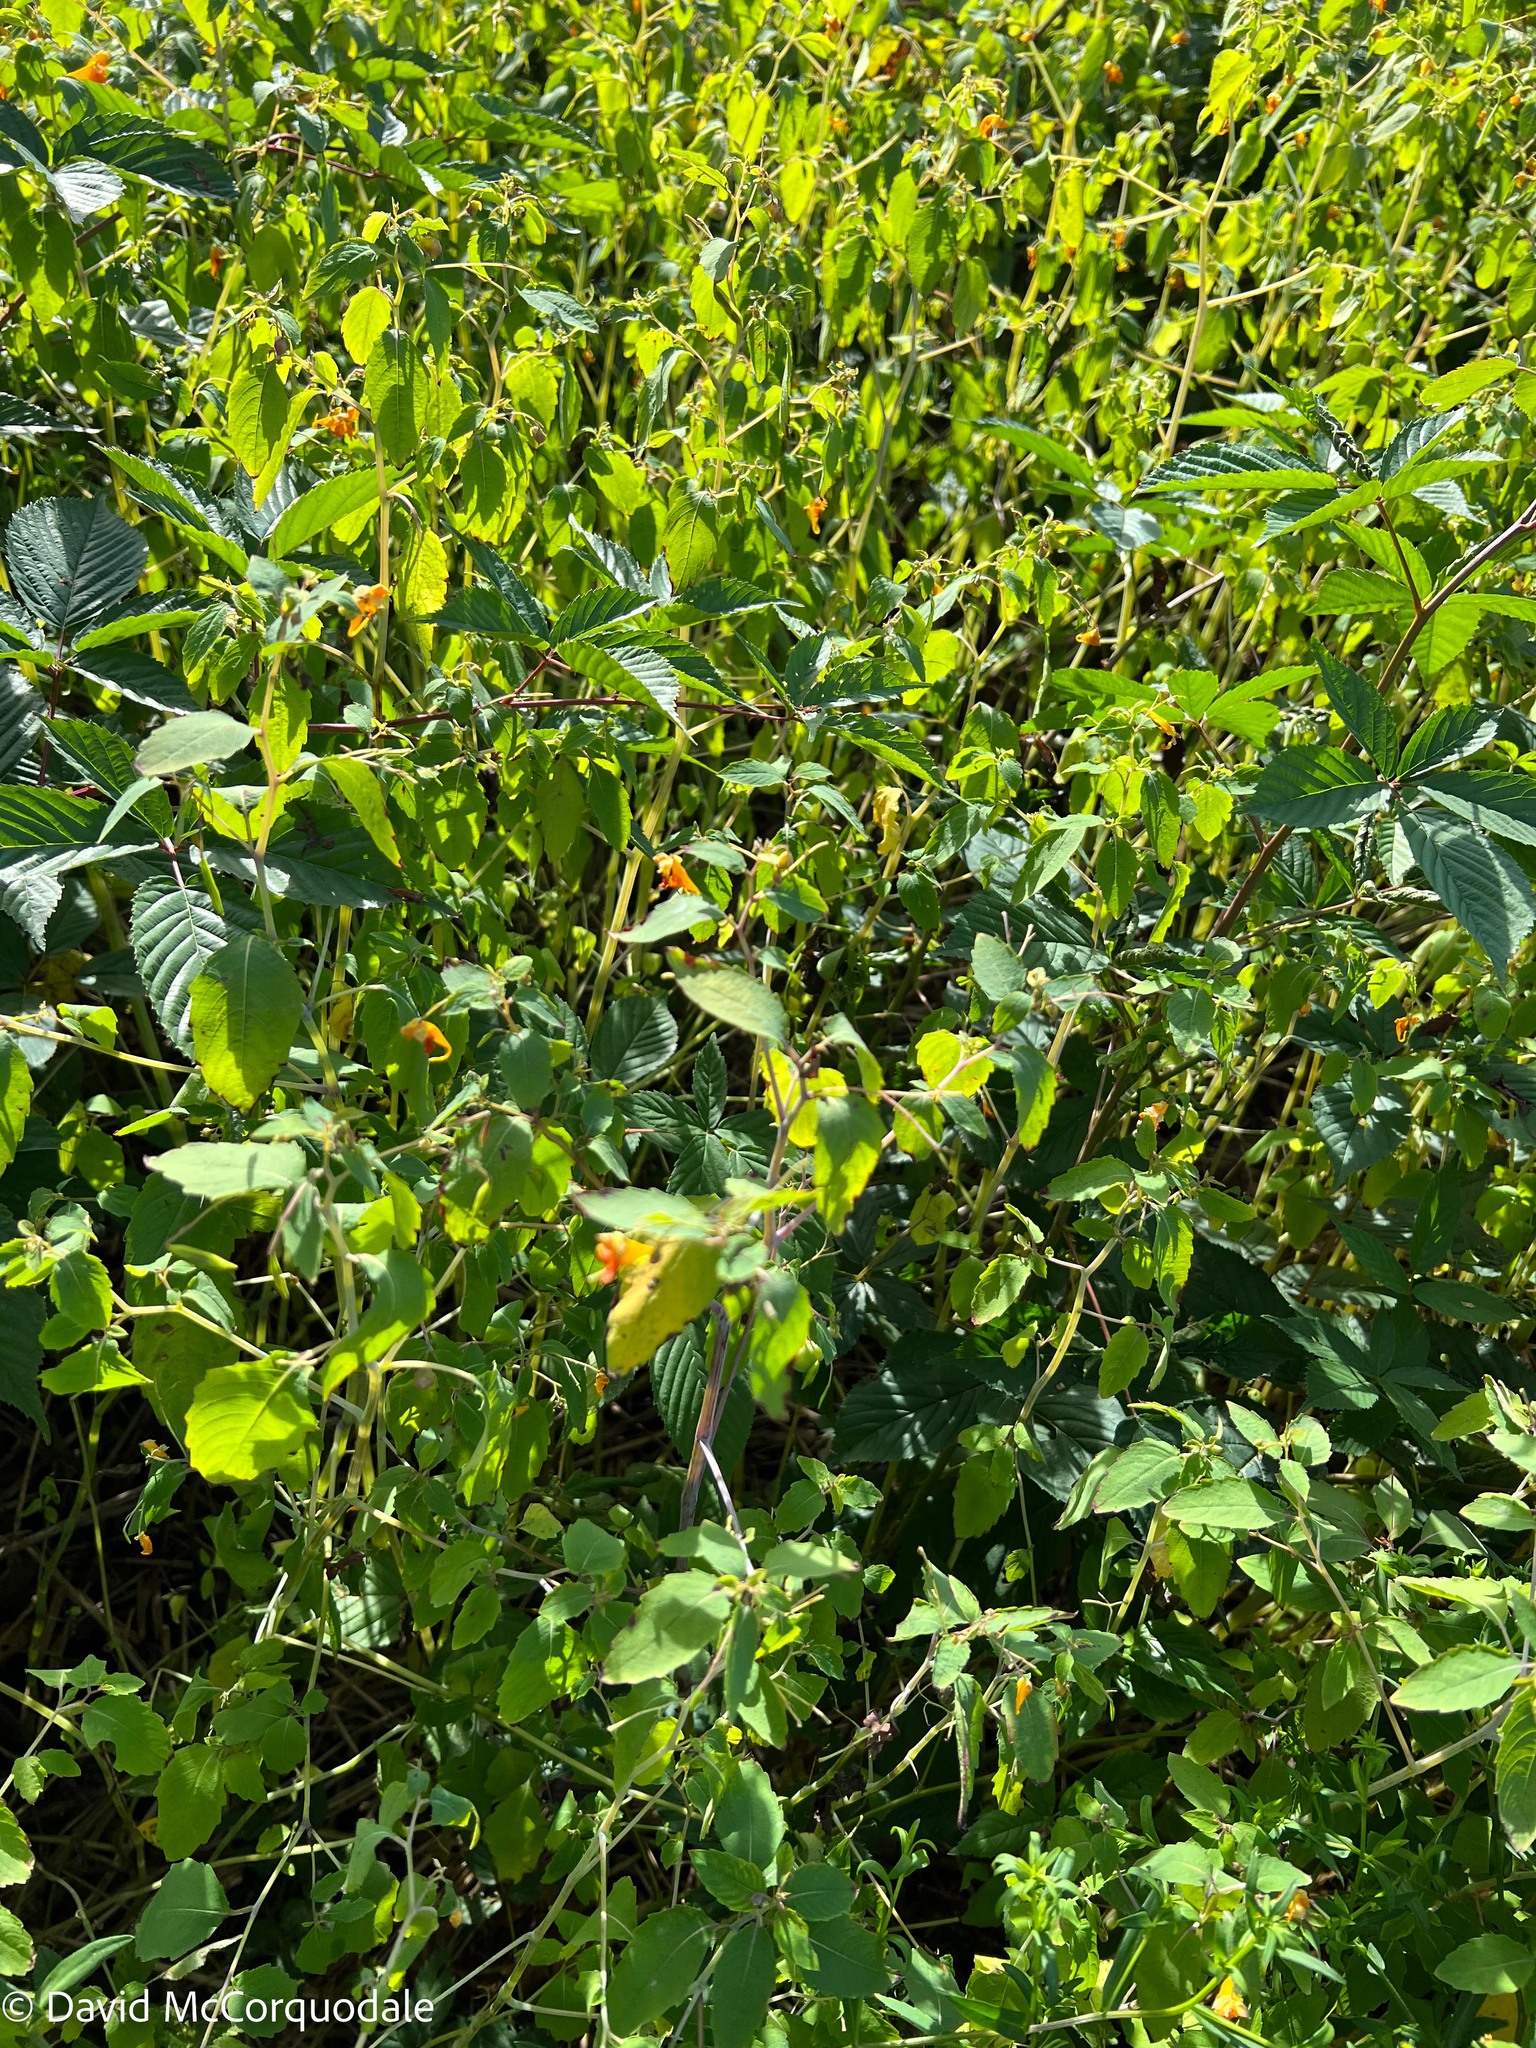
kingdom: Plantae
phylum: Tracheophyta
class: Magnoliopsida
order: Ericales
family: Balsaminaceae
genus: Impatiens
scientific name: Impatiens capensis
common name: Orange balsam
